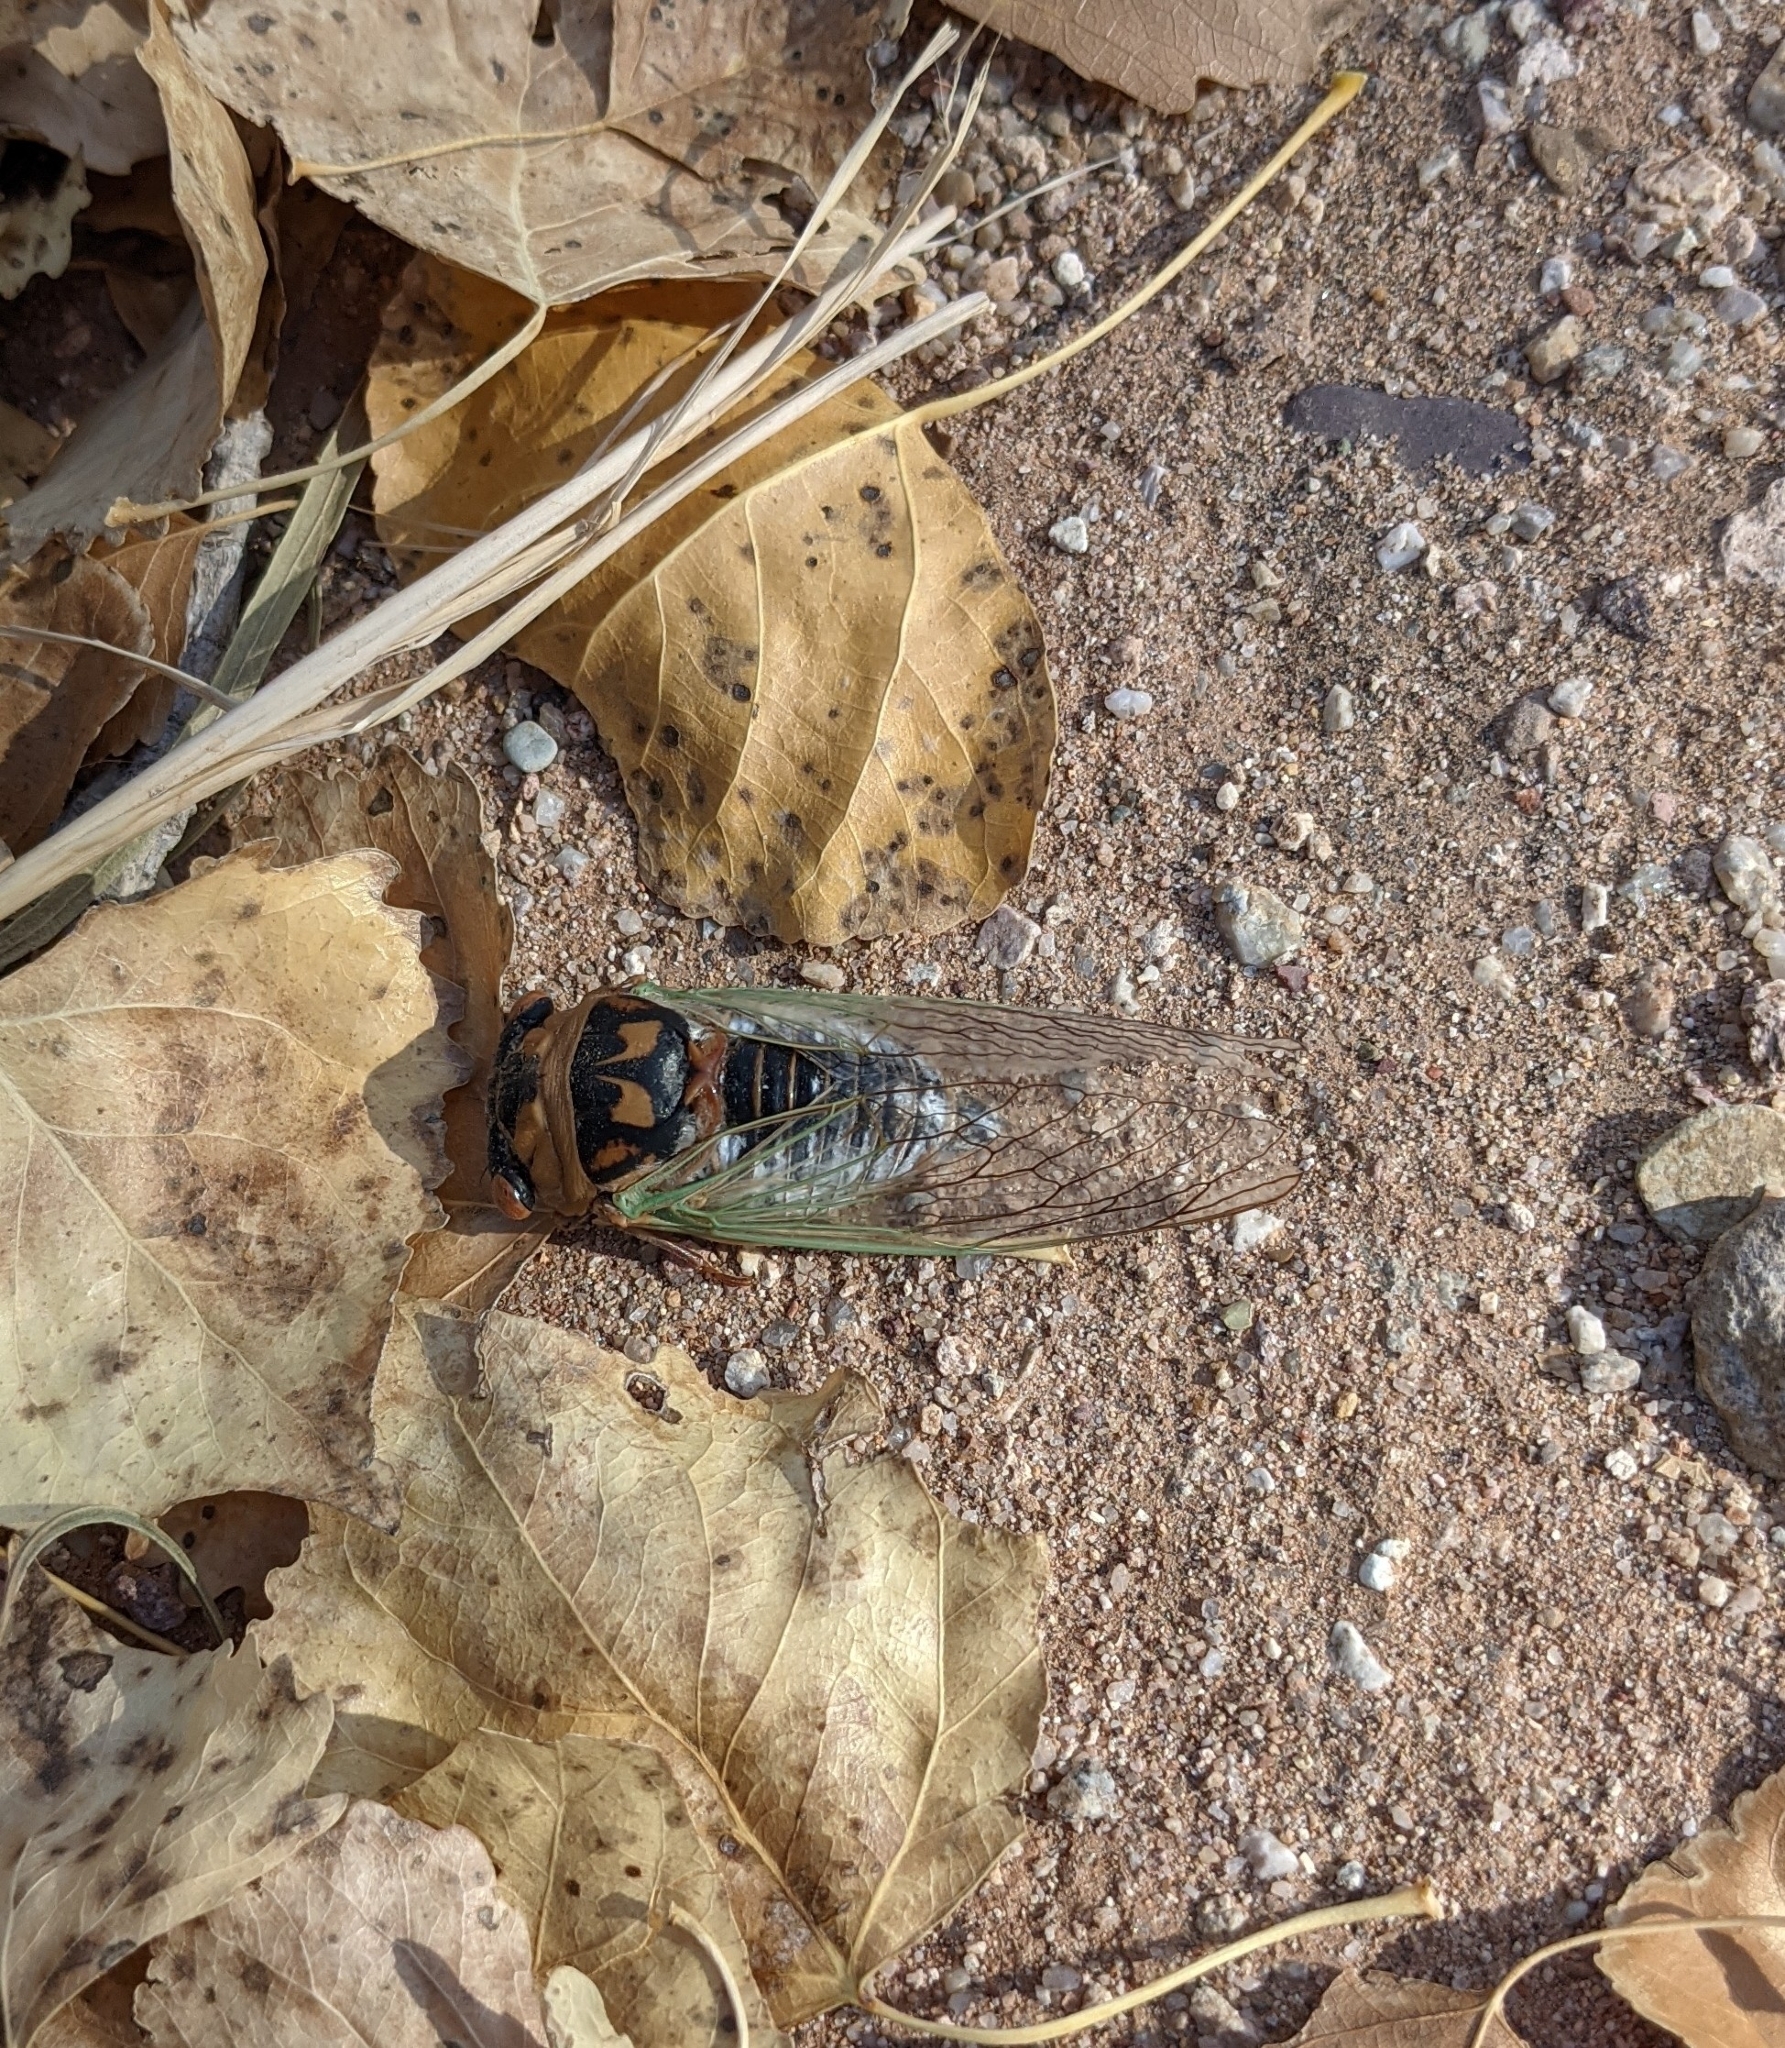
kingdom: Animalia
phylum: Arthropoda
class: Insecta
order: Hemiptera
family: Cicadidae
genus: Megatibicen
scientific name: Megatibicen cultriformis
